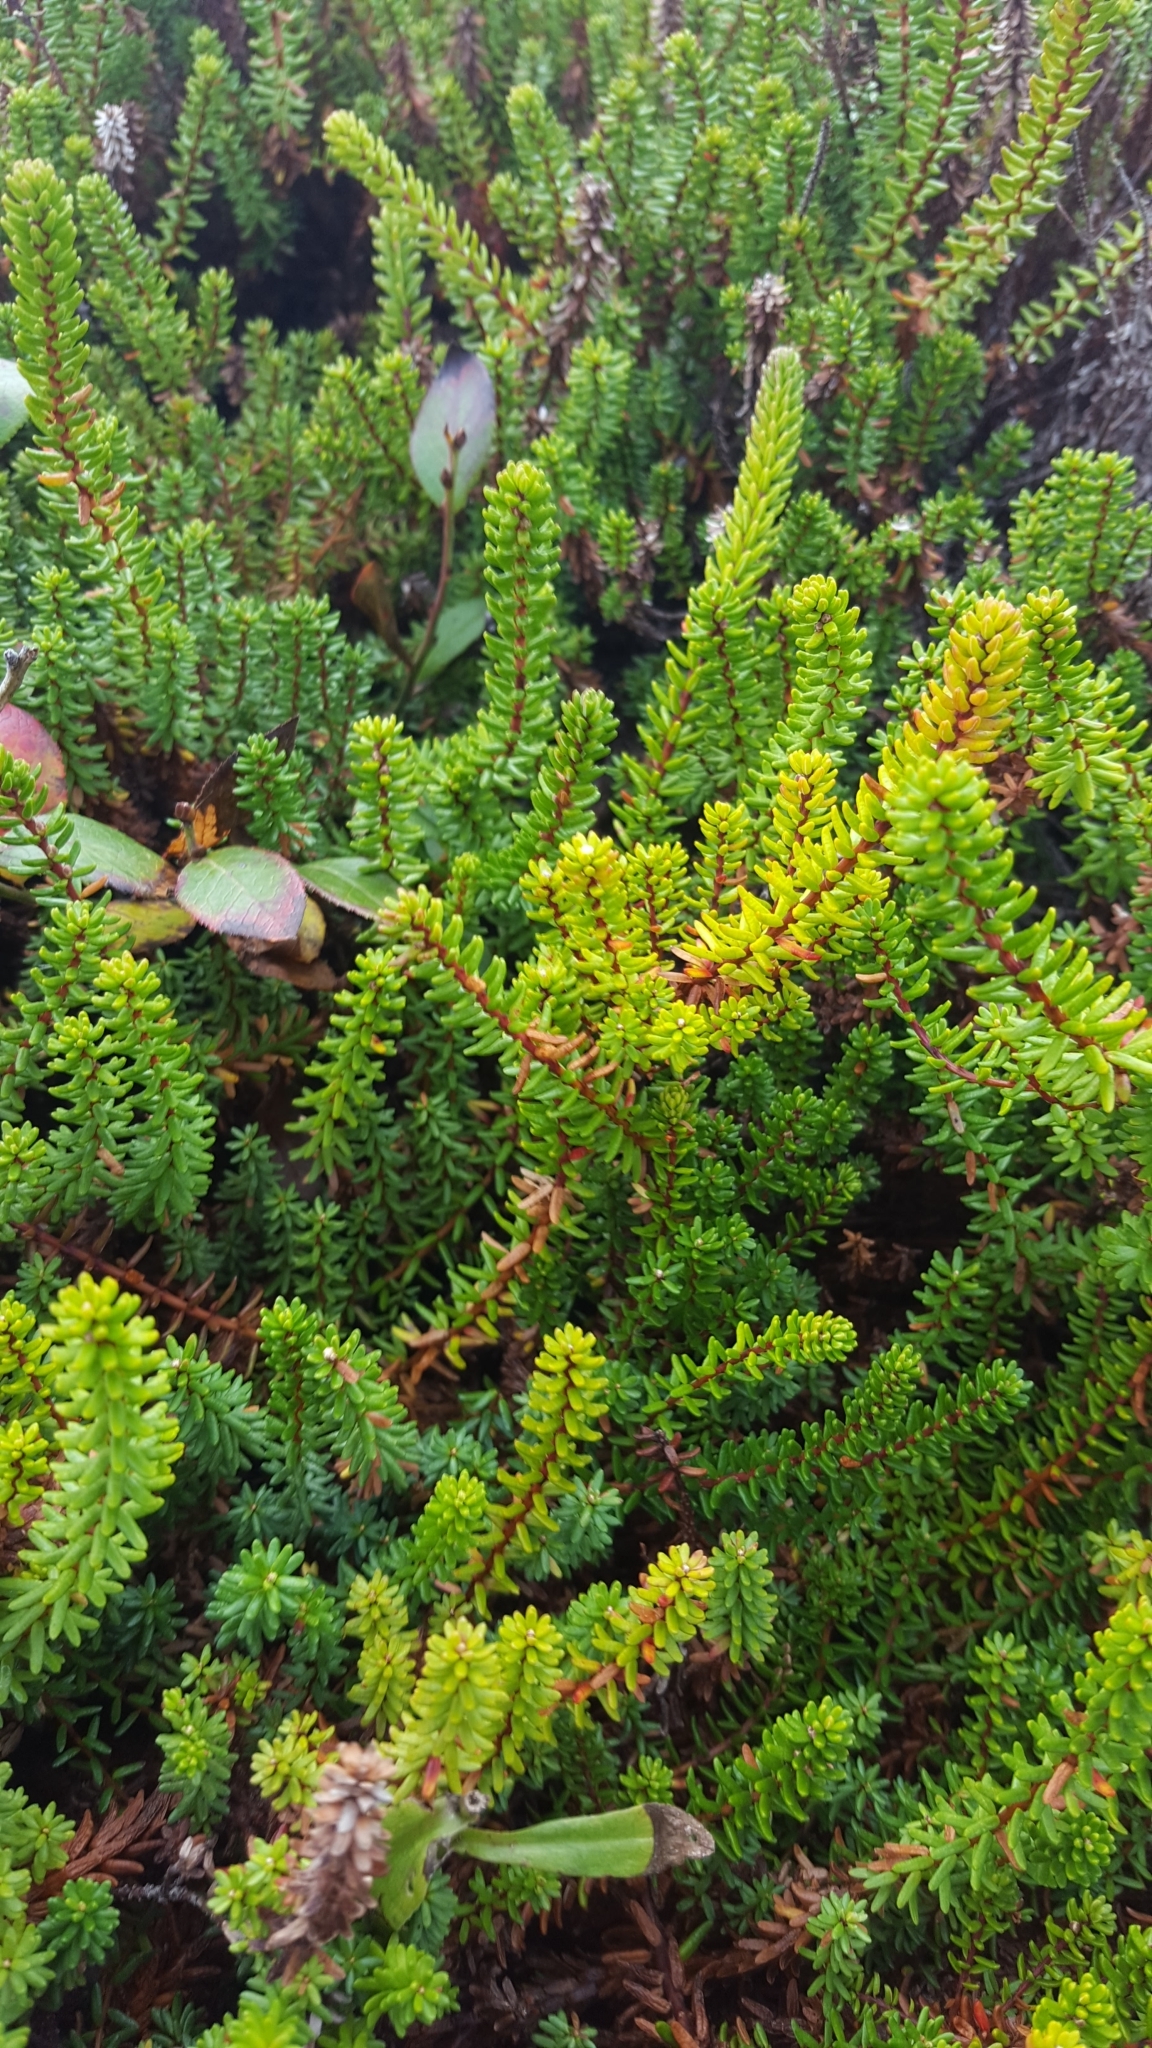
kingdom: Plantae
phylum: Tracheophyta
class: Magnoliopsida
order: Ericales
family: Ericaceae
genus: Empetrum
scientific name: Empetrum nigrum
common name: Black crowberry
